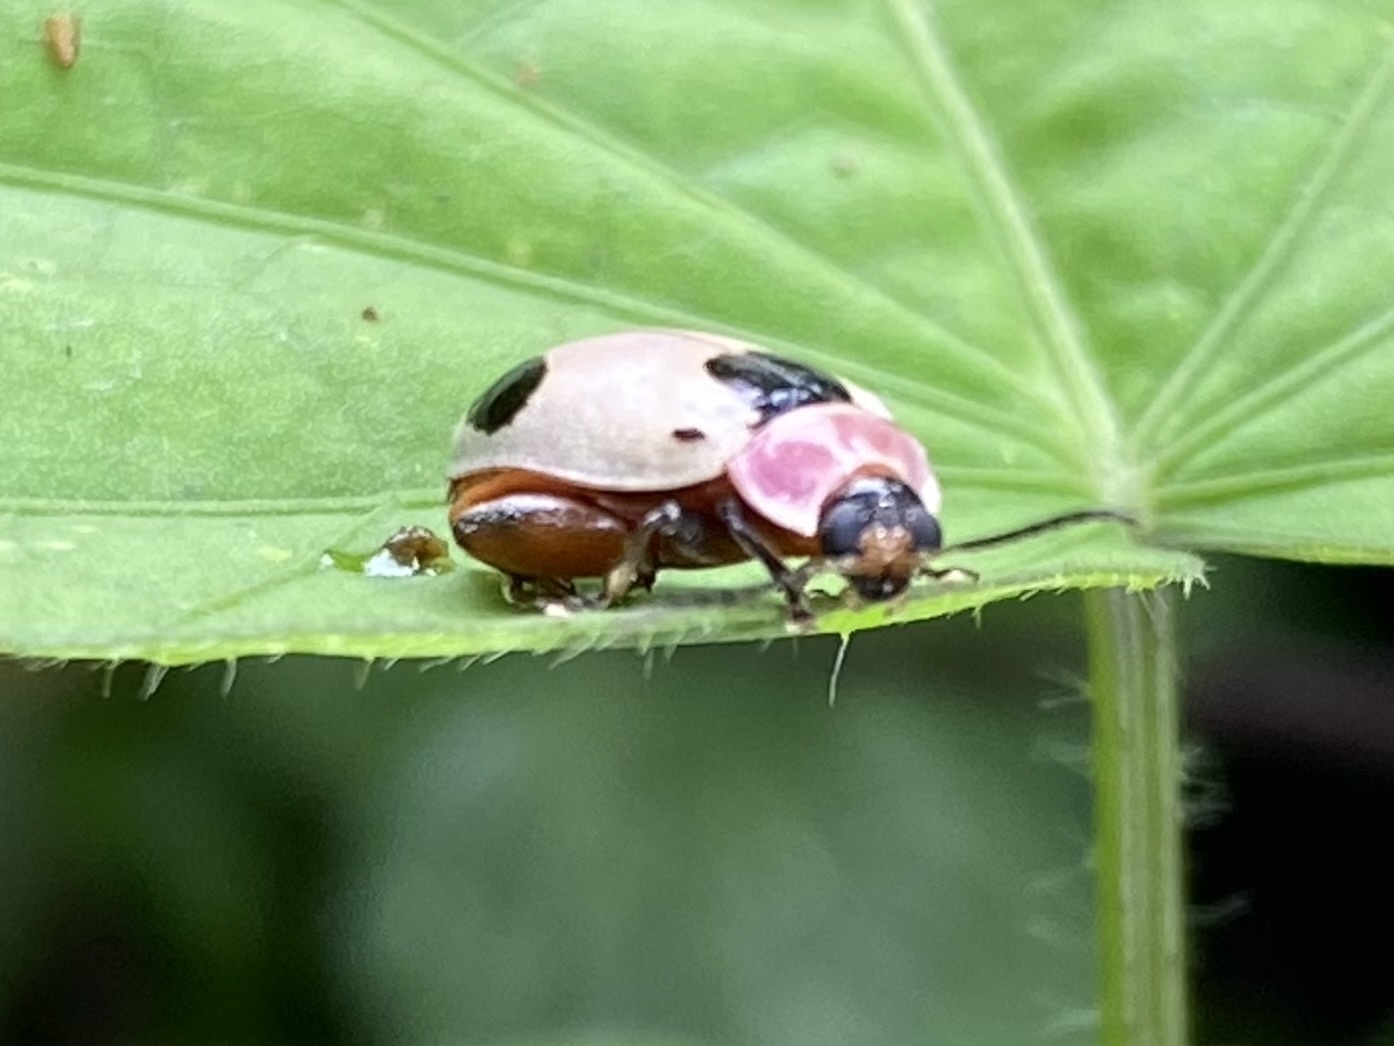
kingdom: Animalia
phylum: Arthropoda
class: Insecta
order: Coleoptera
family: Chrysomelidae
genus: Alagoasa
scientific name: Alagoasa
